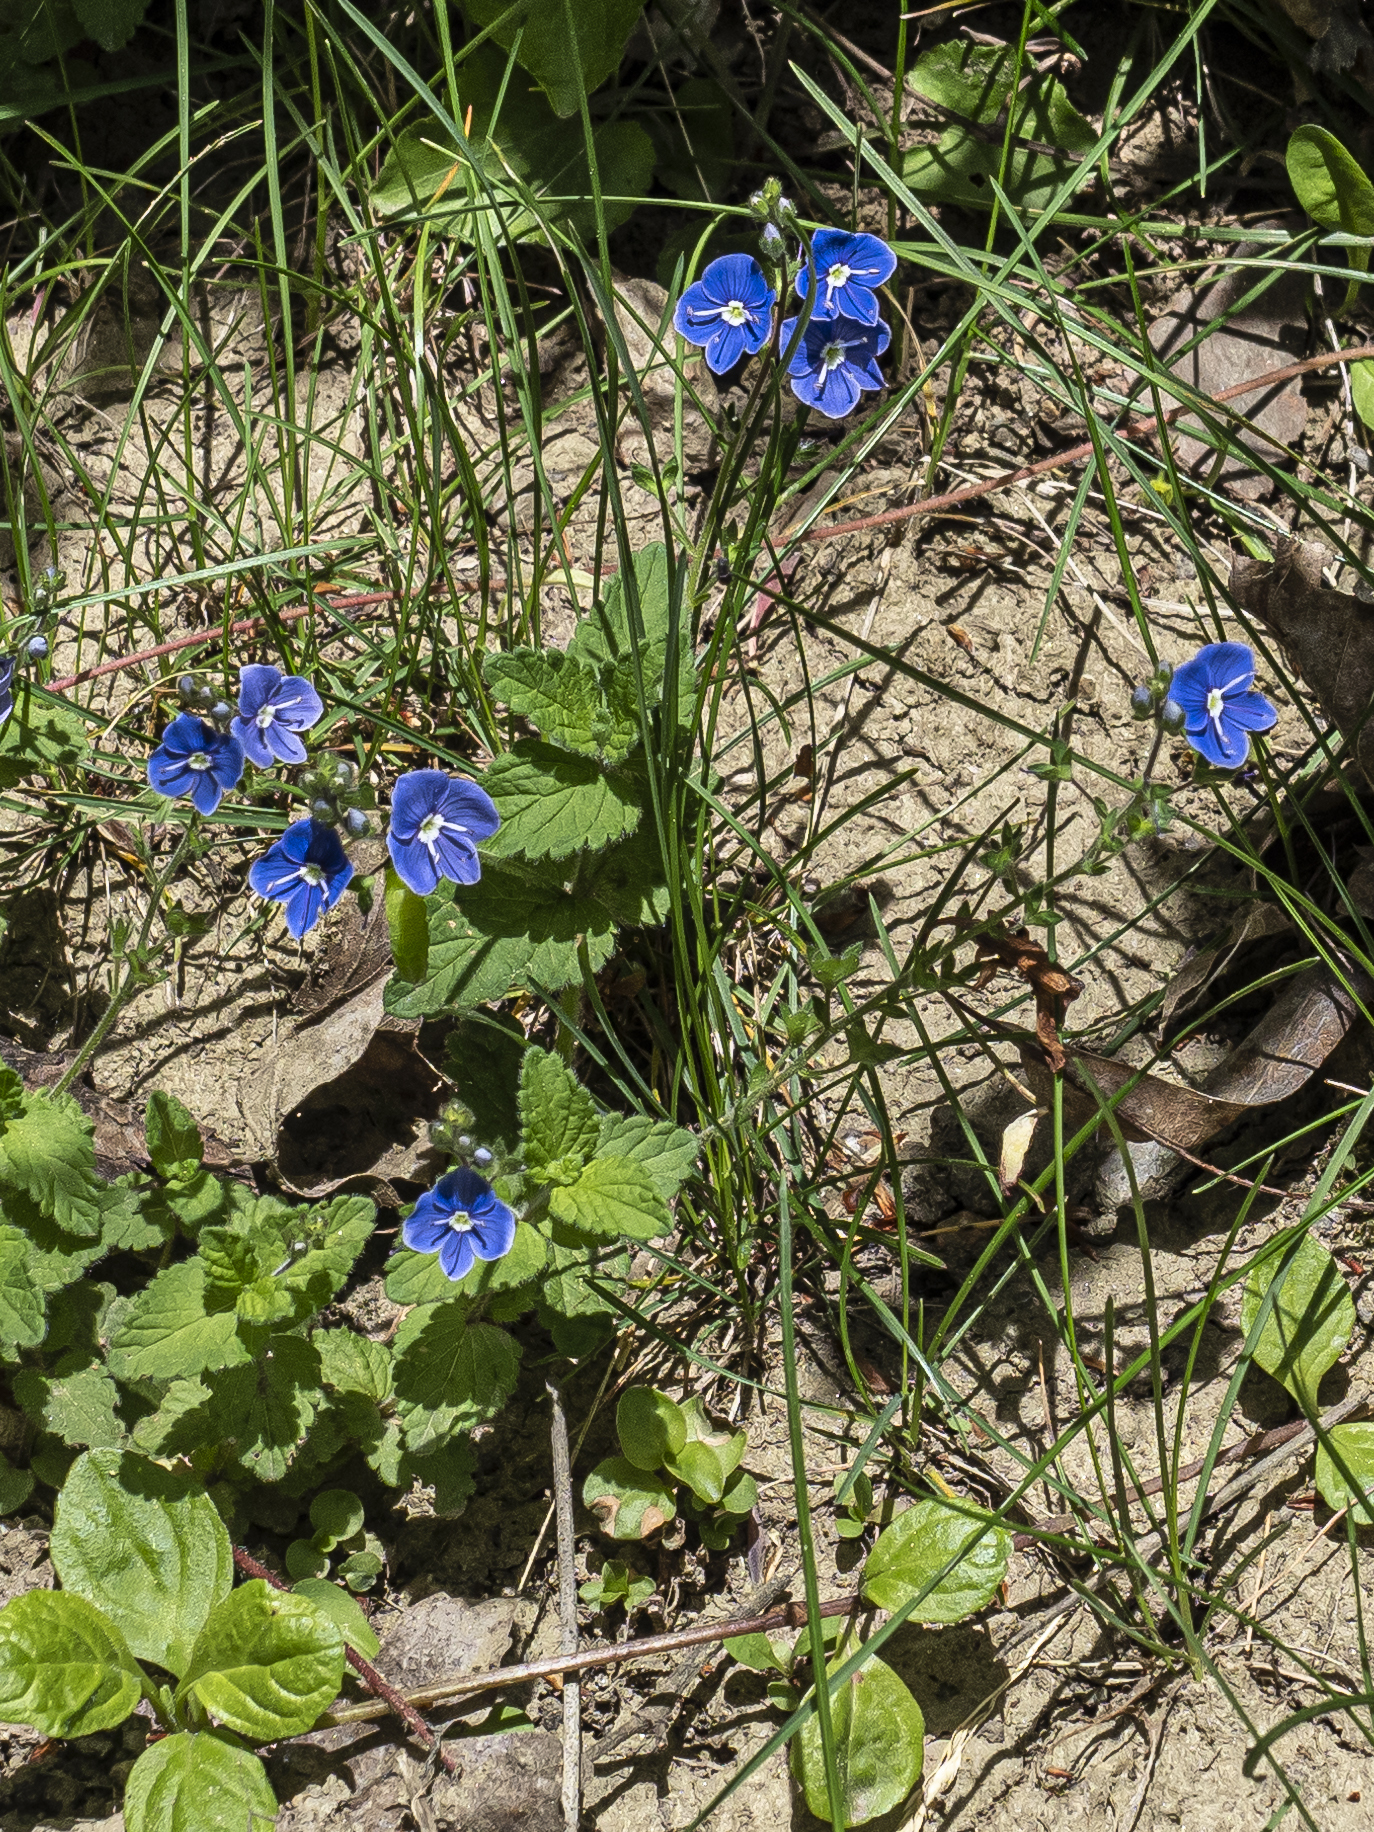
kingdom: Plantae
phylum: Tracheophyta
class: Magnoliopsida
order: Lamiales
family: Plantaginaceae
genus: Veronica
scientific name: Veronica chamaedrys
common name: Germander speedwell
